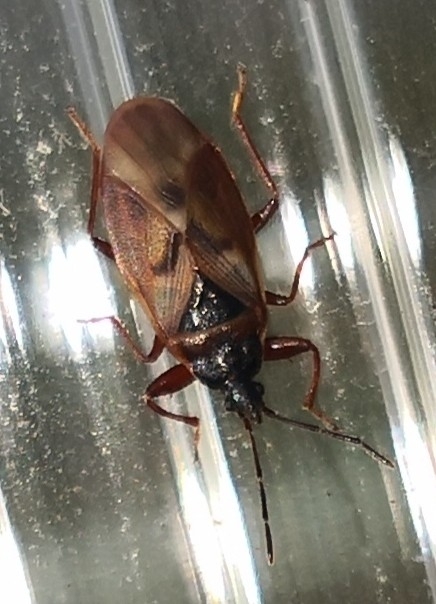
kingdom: Animalia
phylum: Arthropoda
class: Insecta
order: Hemiptera
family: Rhyparochromidae
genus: Gastrodes
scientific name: Gastrodes abietum
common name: Spruce cone bug
